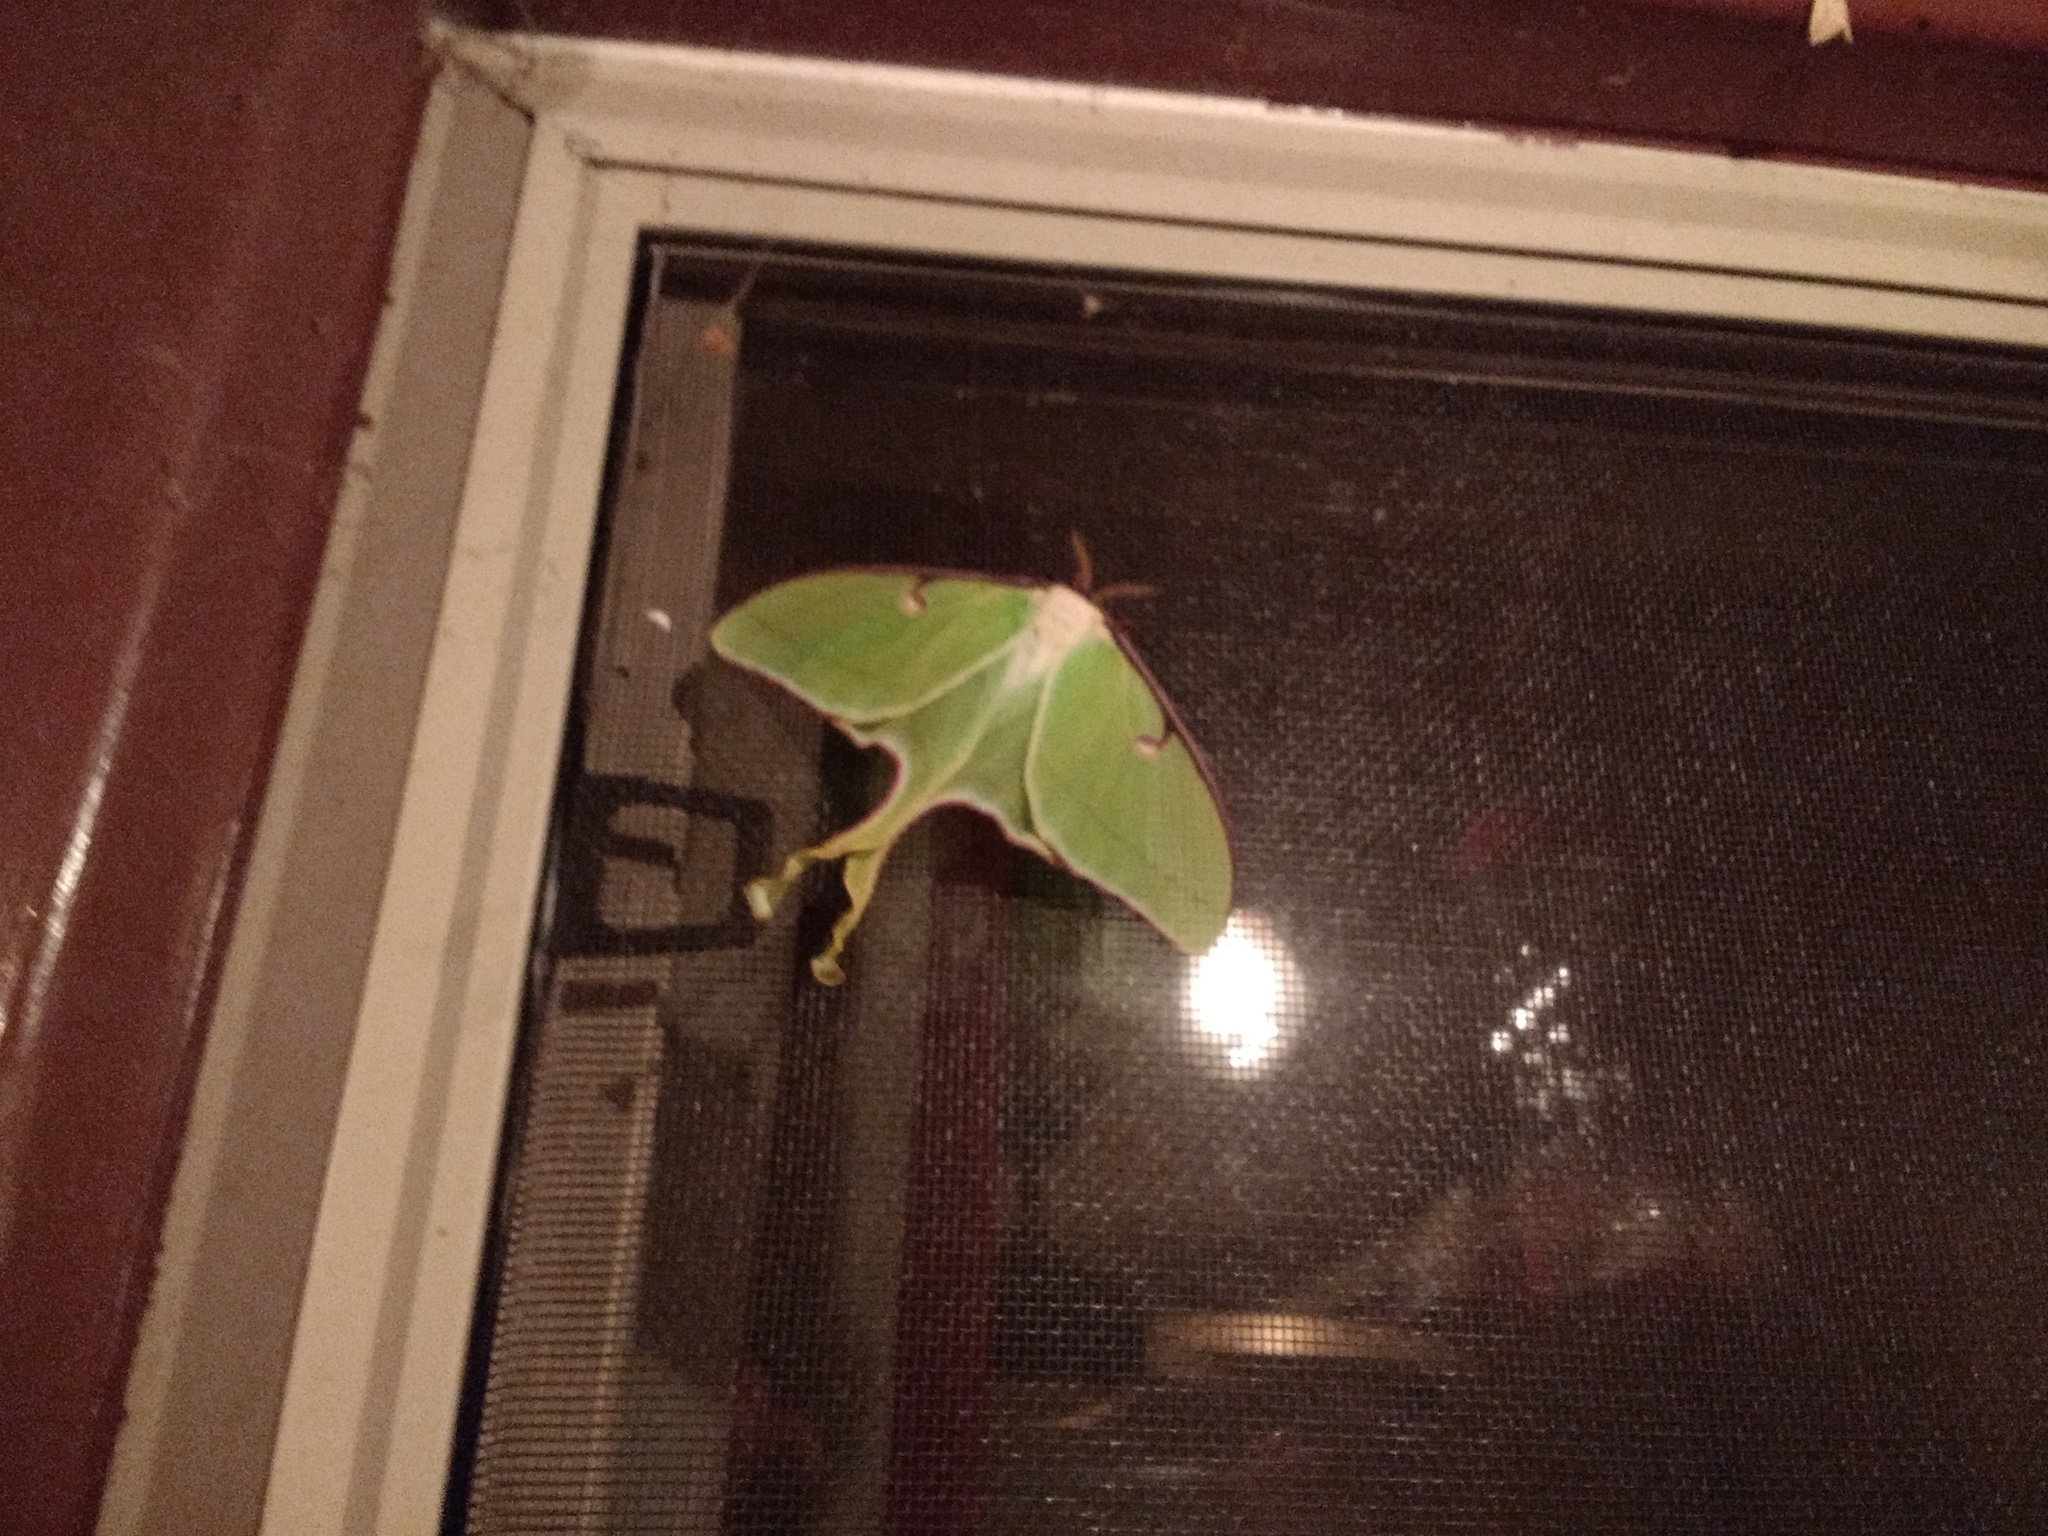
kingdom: Animalia
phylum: Arthropoda
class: Insecta
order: Lepidoptera
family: Saturniidae
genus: Actias
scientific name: Actias luna
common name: Luna moth
